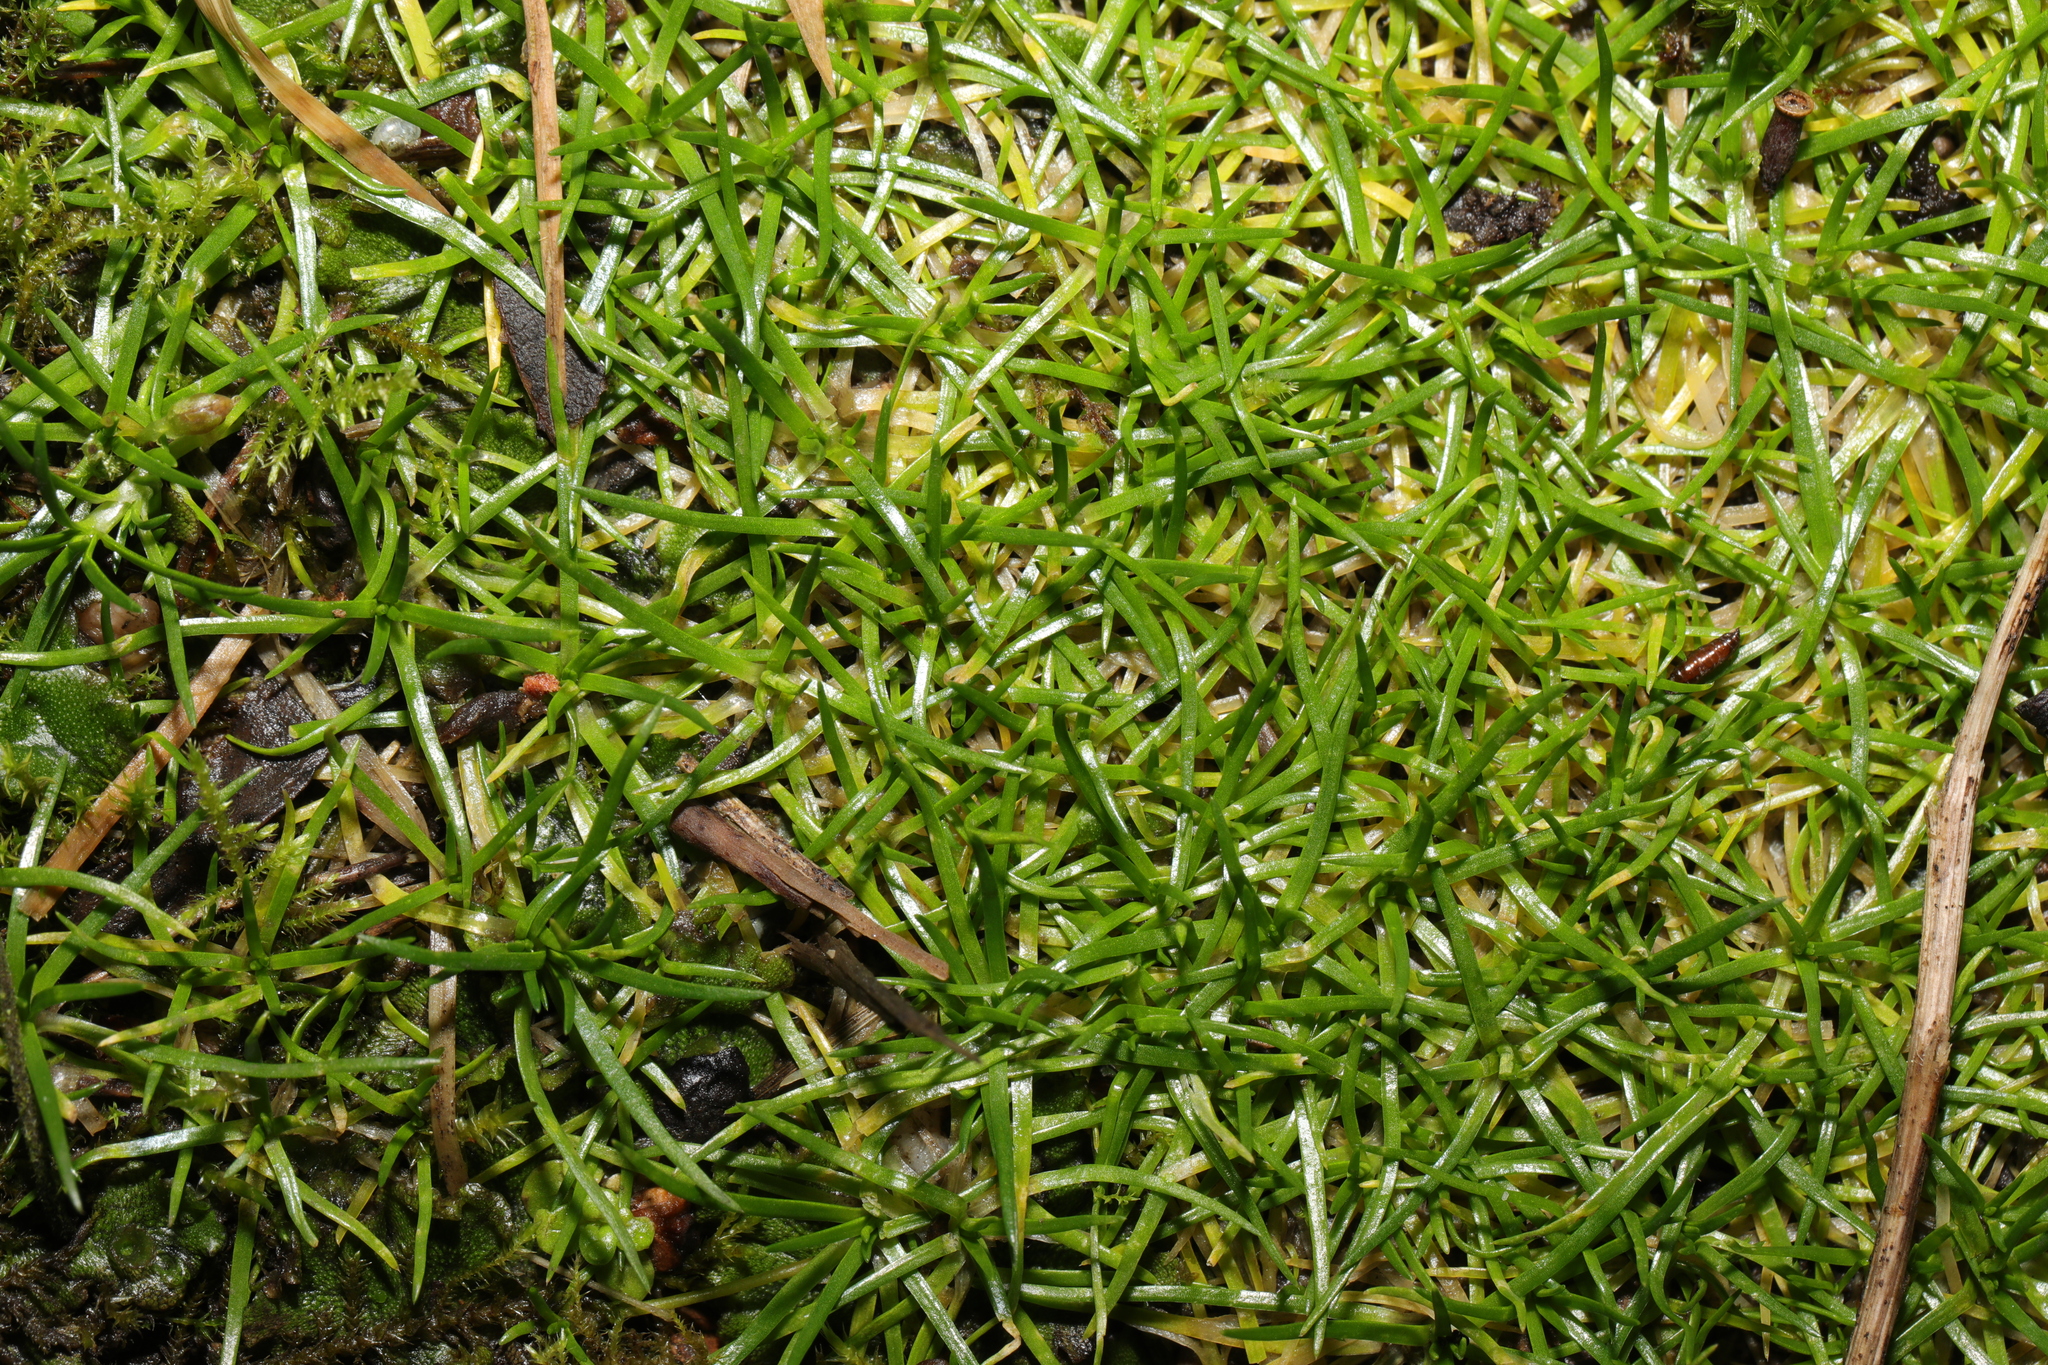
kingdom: Plantae
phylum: Tracheophyta
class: Magnoliopsida
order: Caryophyllales
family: Caryophyllaceae
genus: Sagina
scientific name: Sagina procumbens
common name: Procumbent pearlwort
